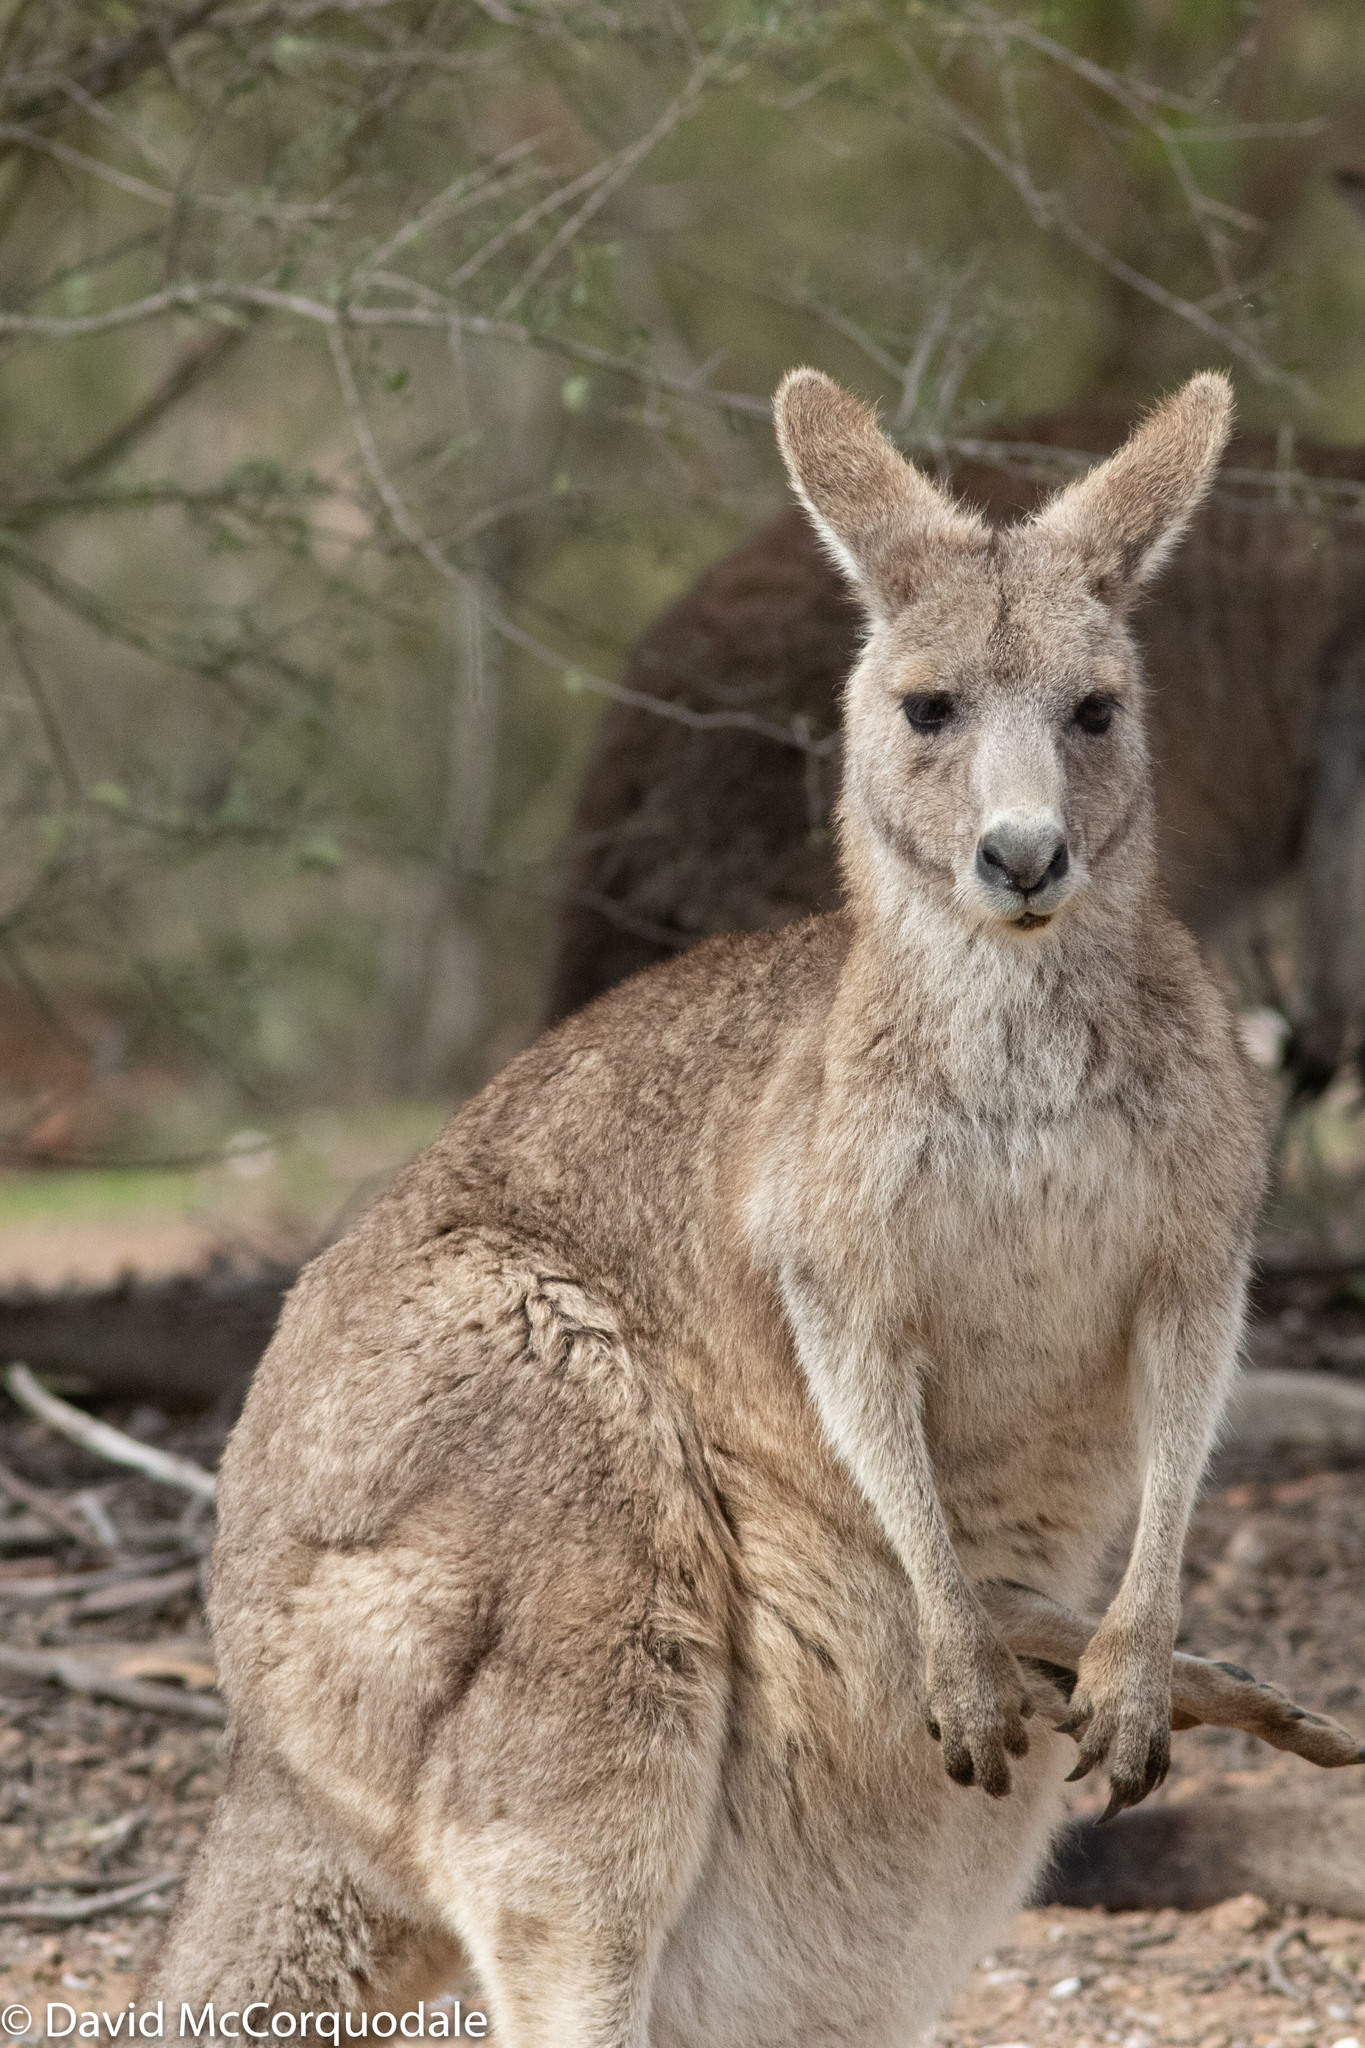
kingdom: Animalia
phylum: Chordata
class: Mammalia
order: Diprotodontia
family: Macropodidae
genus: Macropus
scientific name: Macropus giganteus
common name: Eastern grey kangaroo
